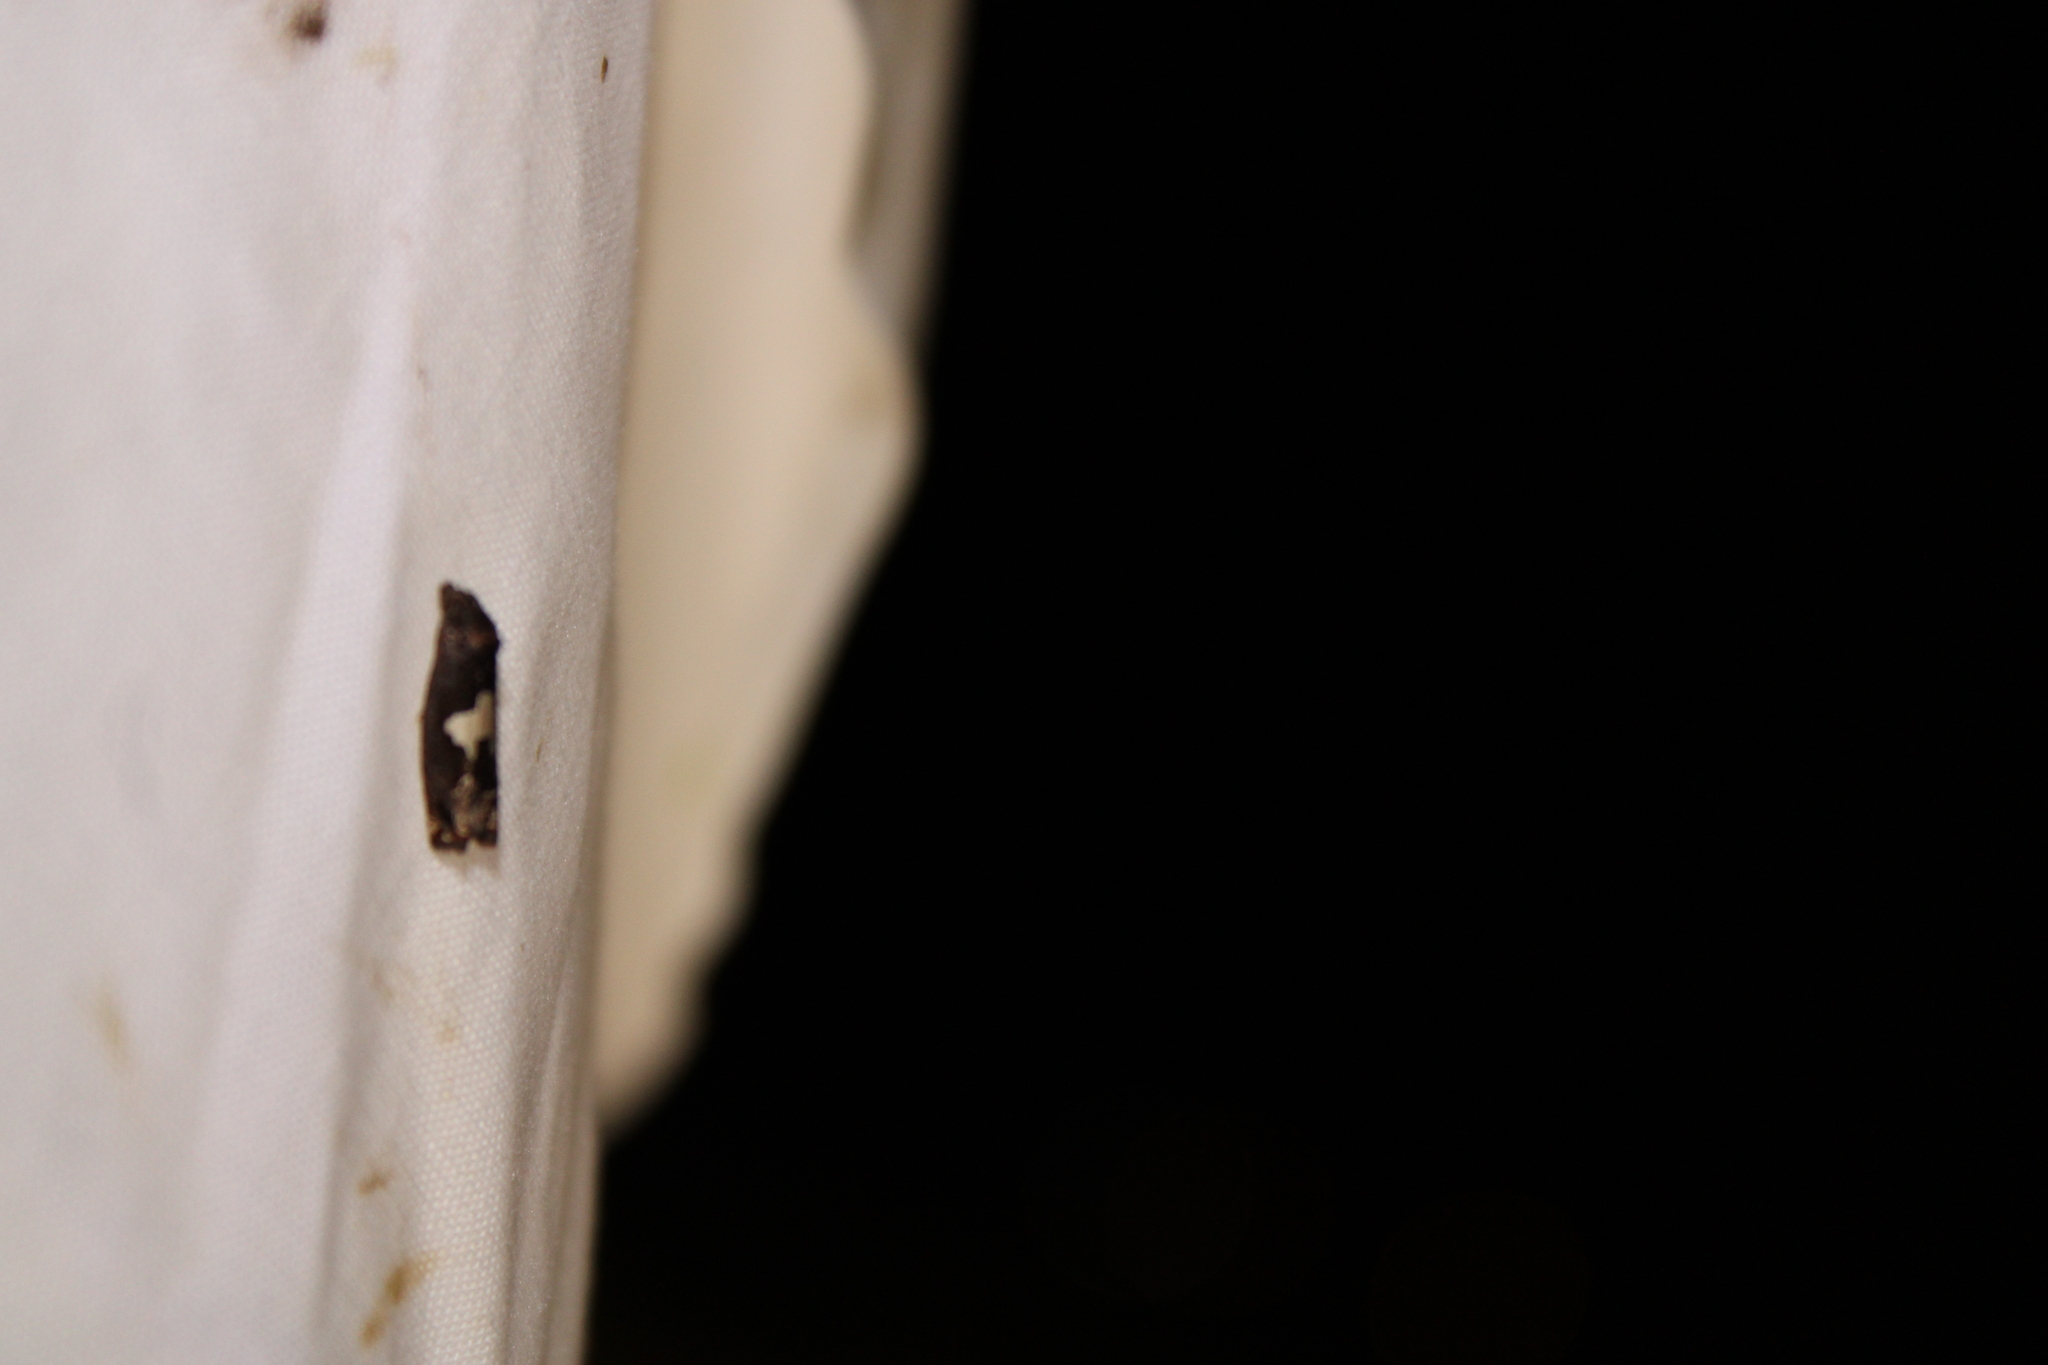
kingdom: Animalia
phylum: Arthropoda
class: Insecta
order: Lepidoptera
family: Tortricidae
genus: Epiblema
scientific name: Epiblema otiosana
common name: Bidens borer moth
